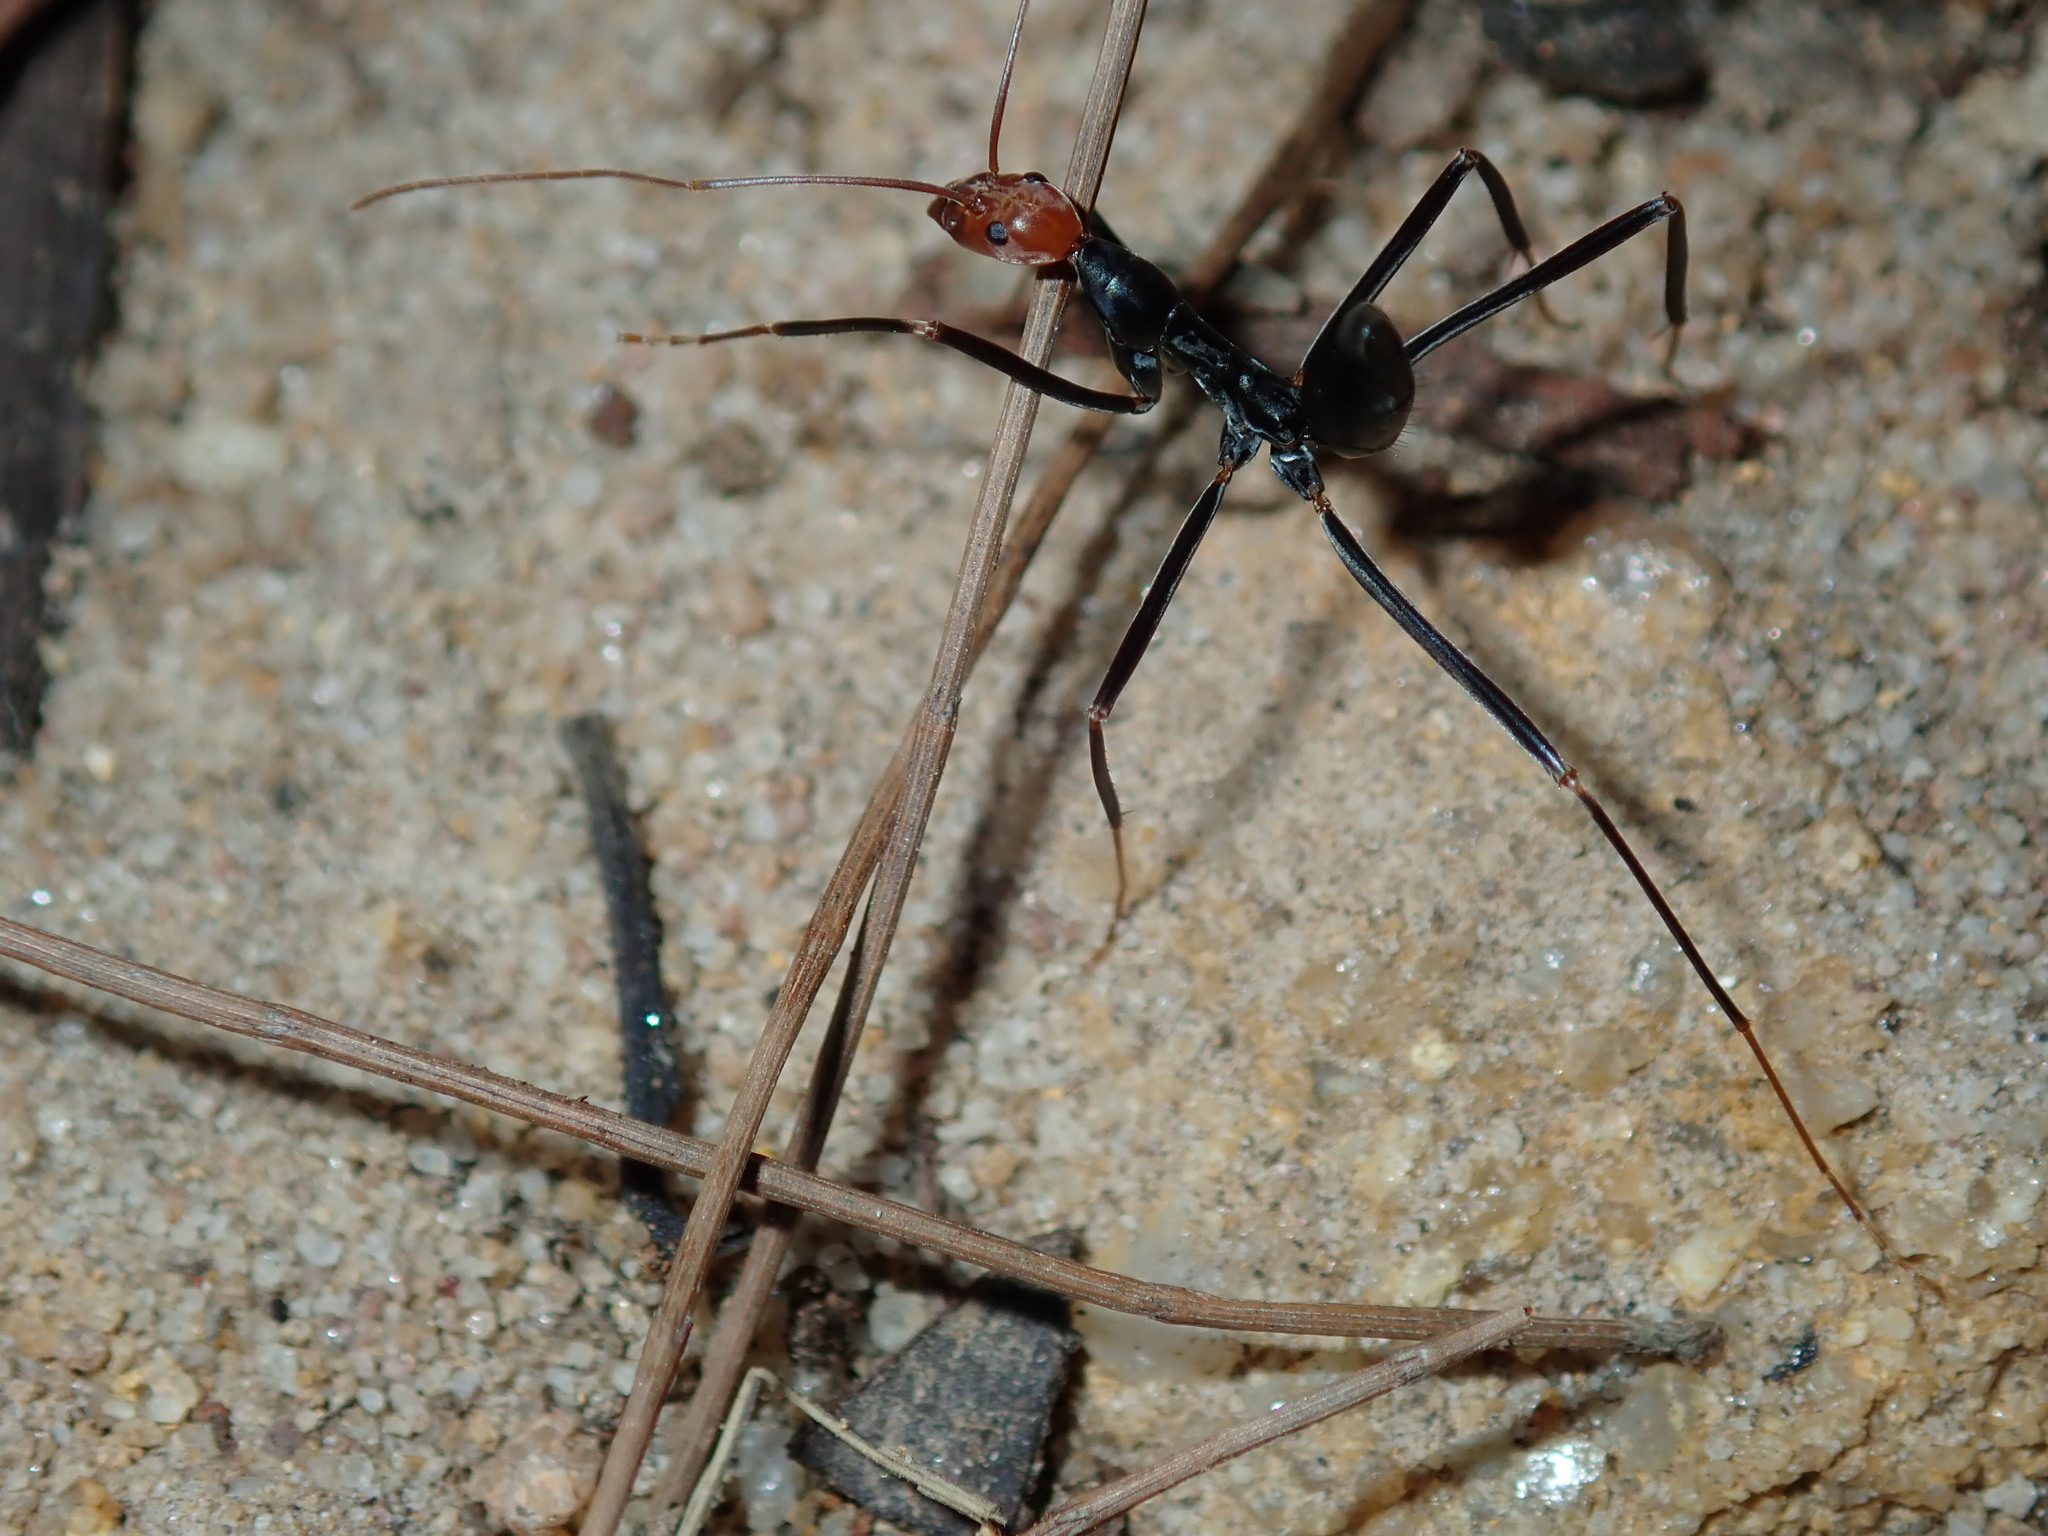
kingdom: Animalia
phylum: Arthropoda
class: Insecta
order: Hymenoptera
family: Formicidae
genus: Leptomyrmex
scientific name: Leptomyrmex erythrocephalus
